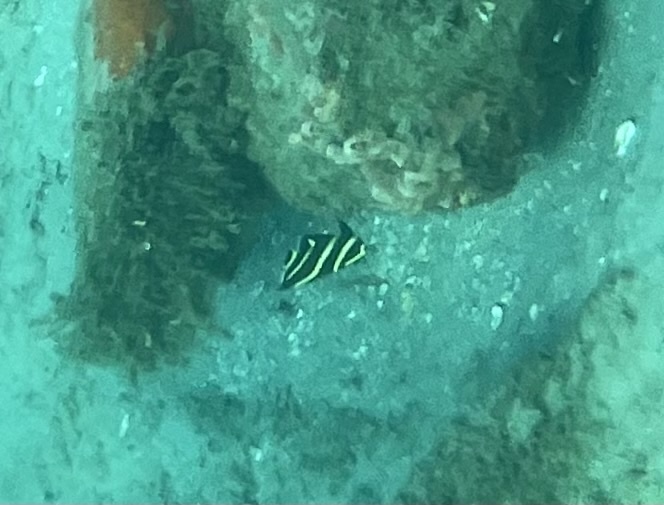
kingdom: Animalia
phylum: Chordata
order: Perciformes
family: Pomacanthidae
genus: Pomacanthus
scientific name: Pomacanthus paru
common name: French angelfish
